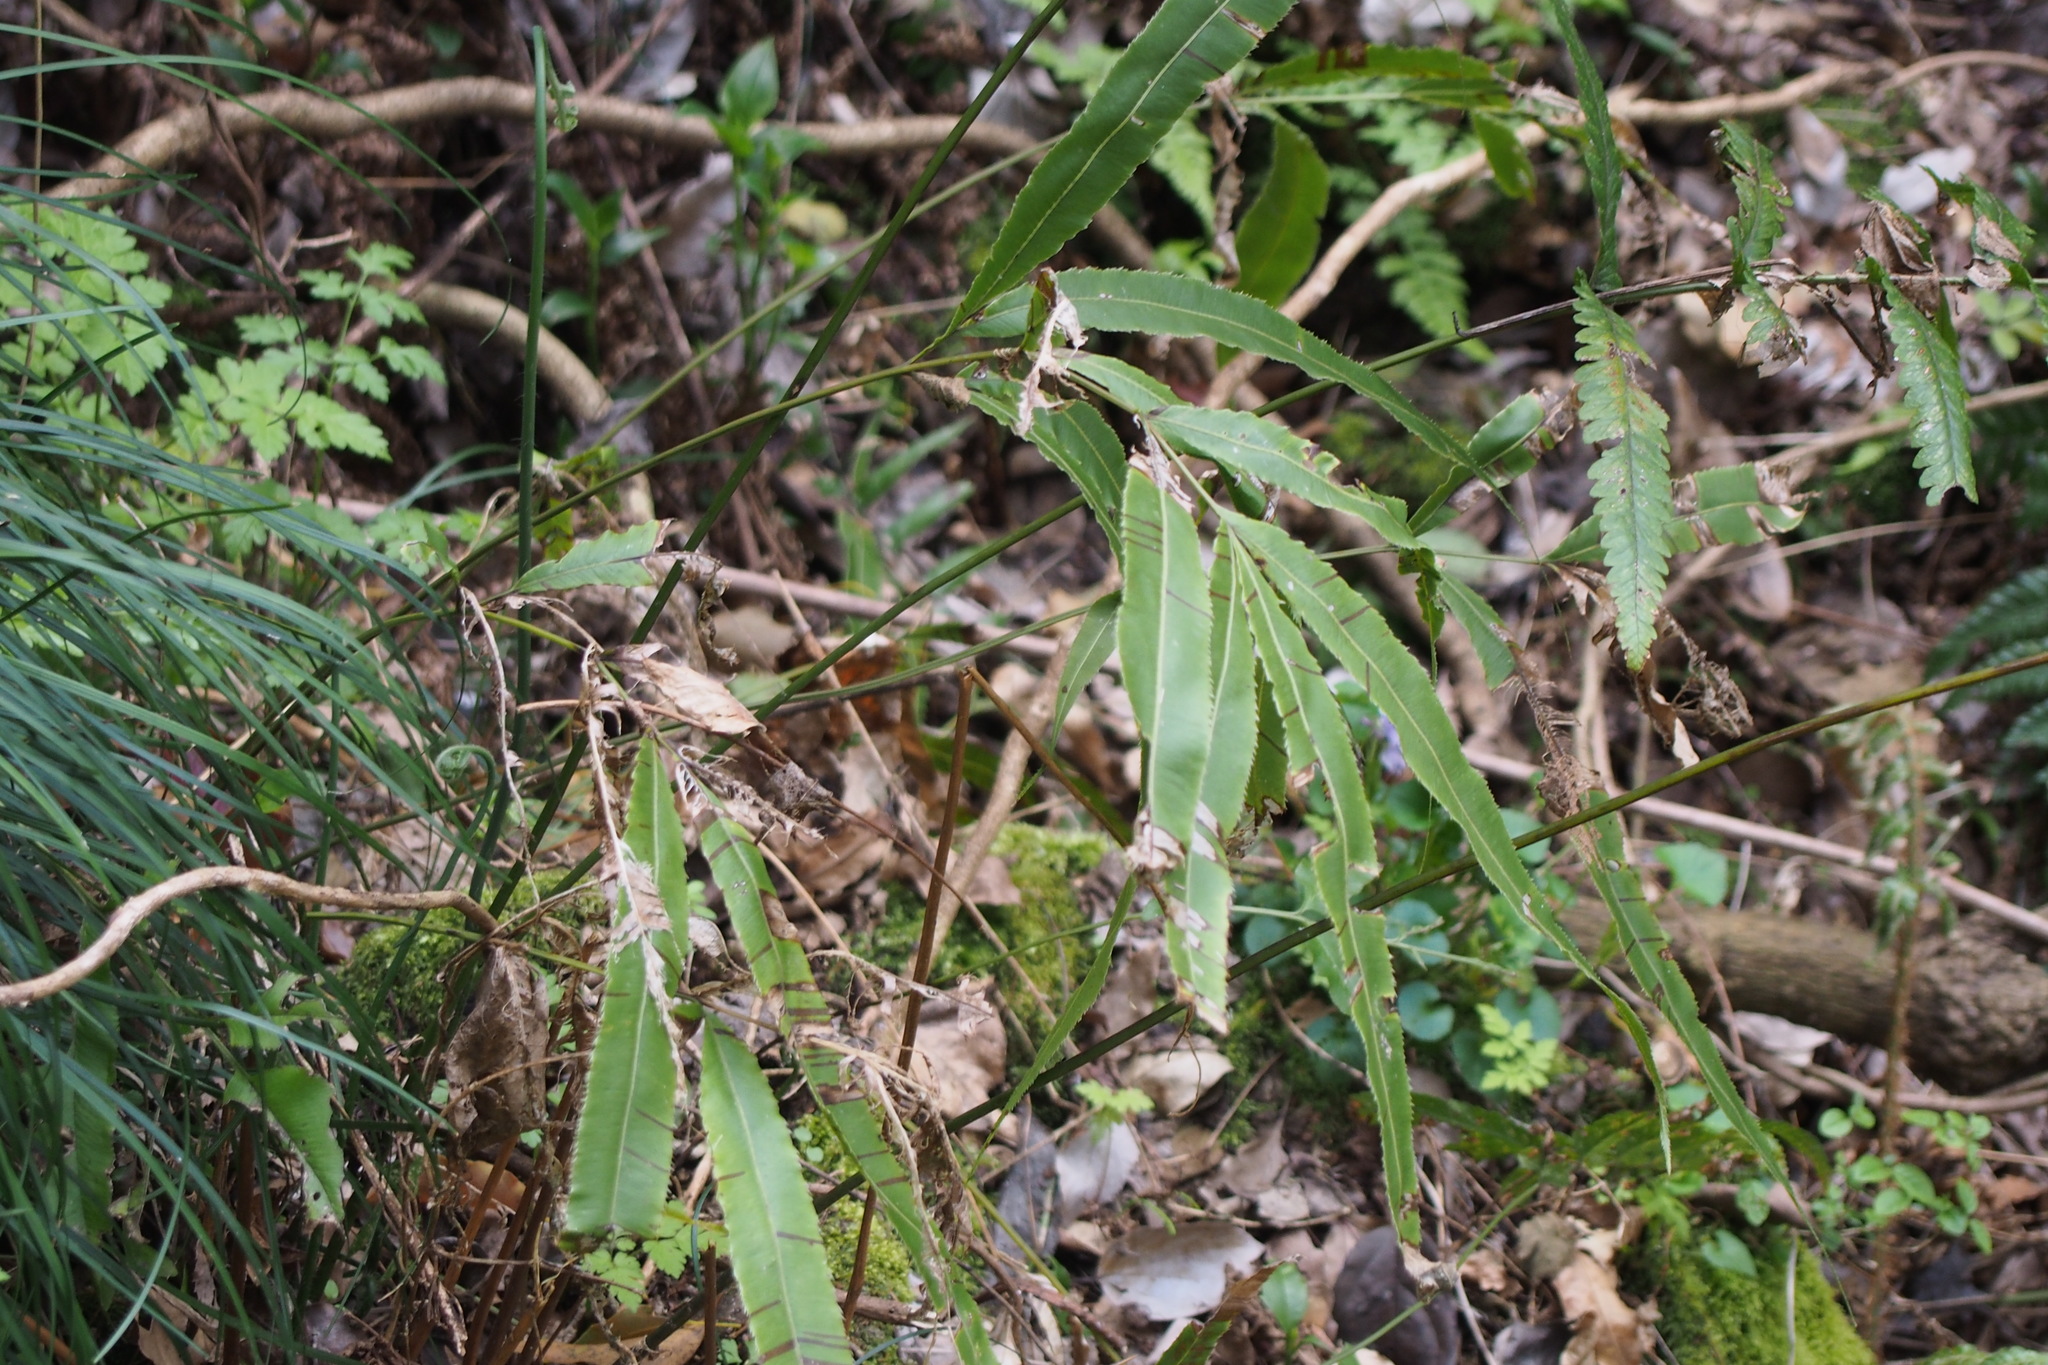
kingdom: Plantae
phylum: Tracheophyta
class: Polypodiopsida
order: Polypodiales
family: Pteridaceae
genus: Pteris
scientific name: Pteris cretica
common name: Ribbon fern
